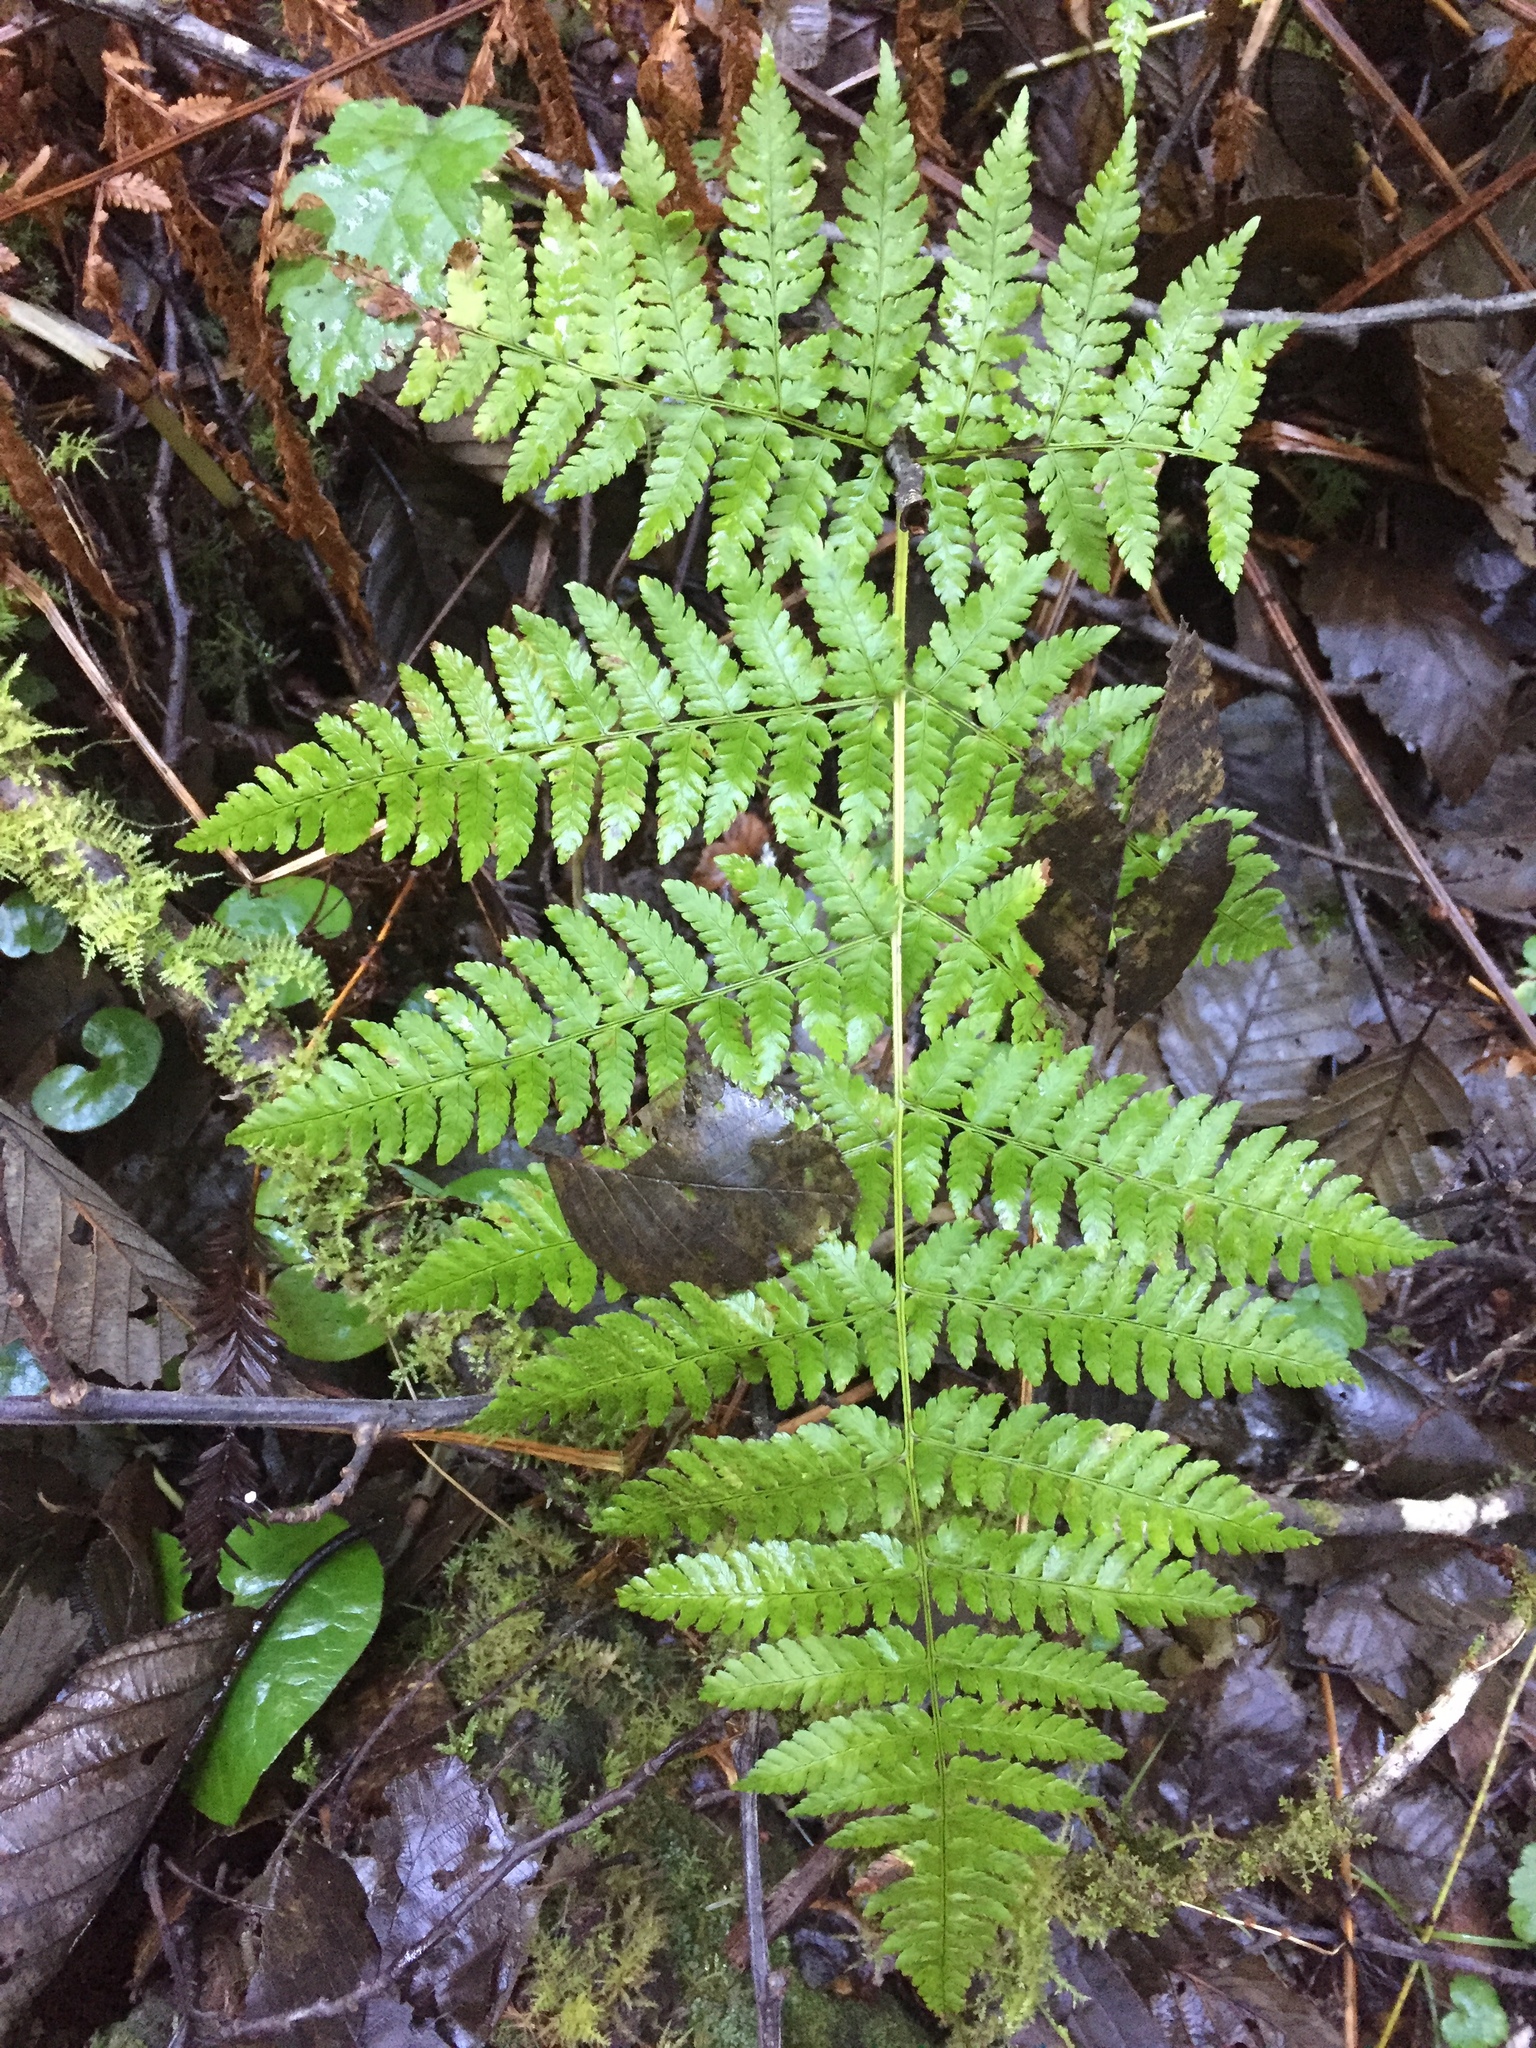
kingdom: Plantae
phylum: Tracheophyta
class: Polypodiopsida
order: Polypodiales
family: Dryopteridaceae
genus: Dryopteris
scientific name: Dryopteris expansa
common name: Northern buckler fern
